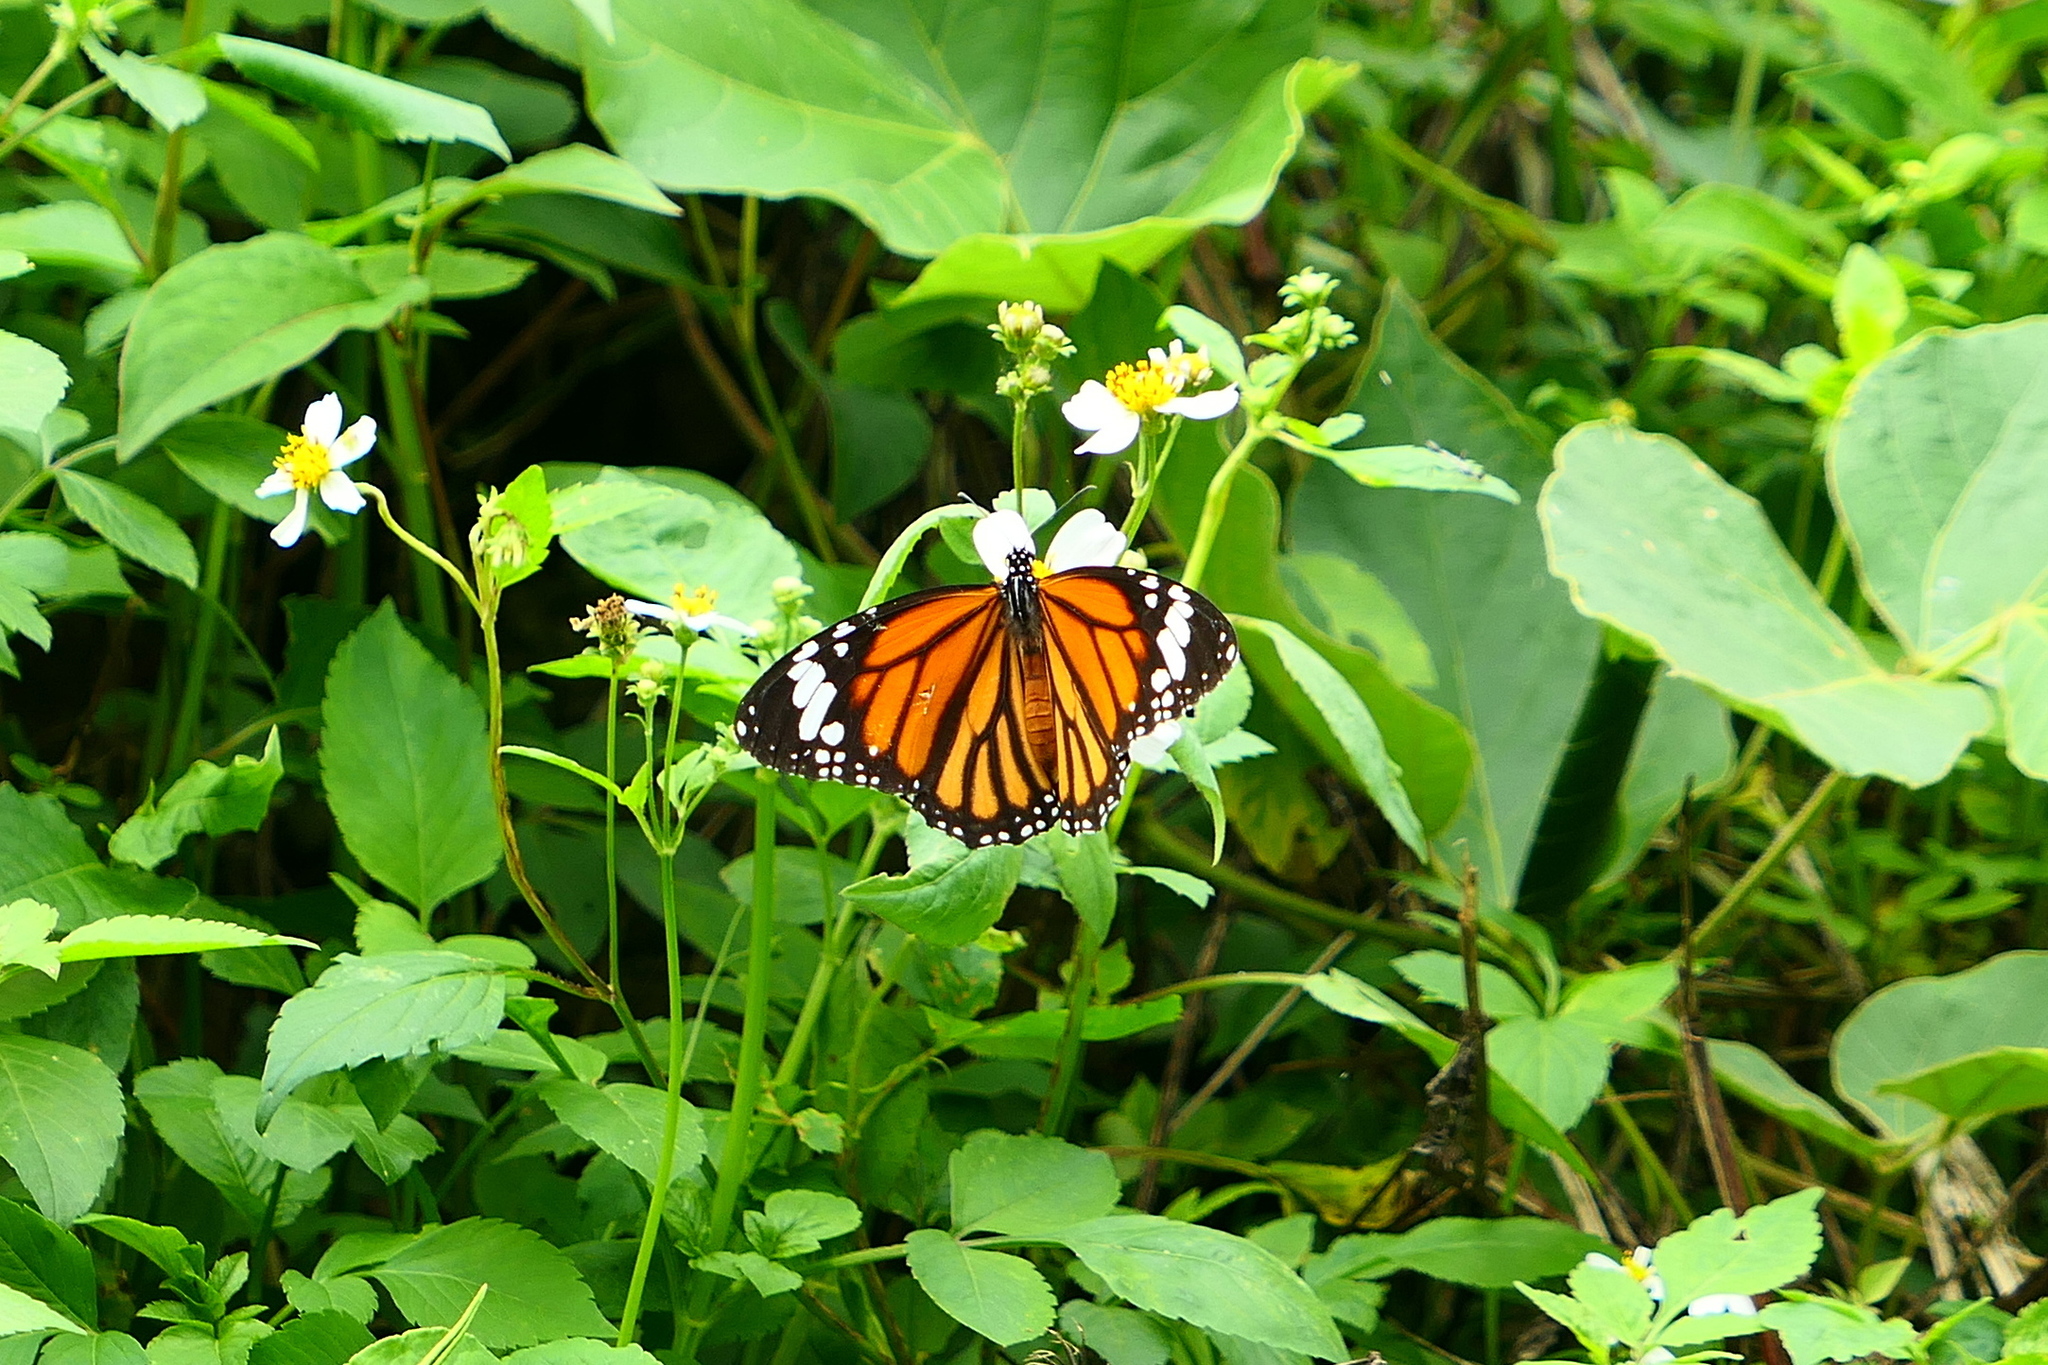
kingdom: Animalia
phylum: Arthropoda
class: Insecta
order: Lepidoptera
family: Nymphalidae
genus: Danaus
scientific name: Danaus genutia
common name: Common tiger butterfly
